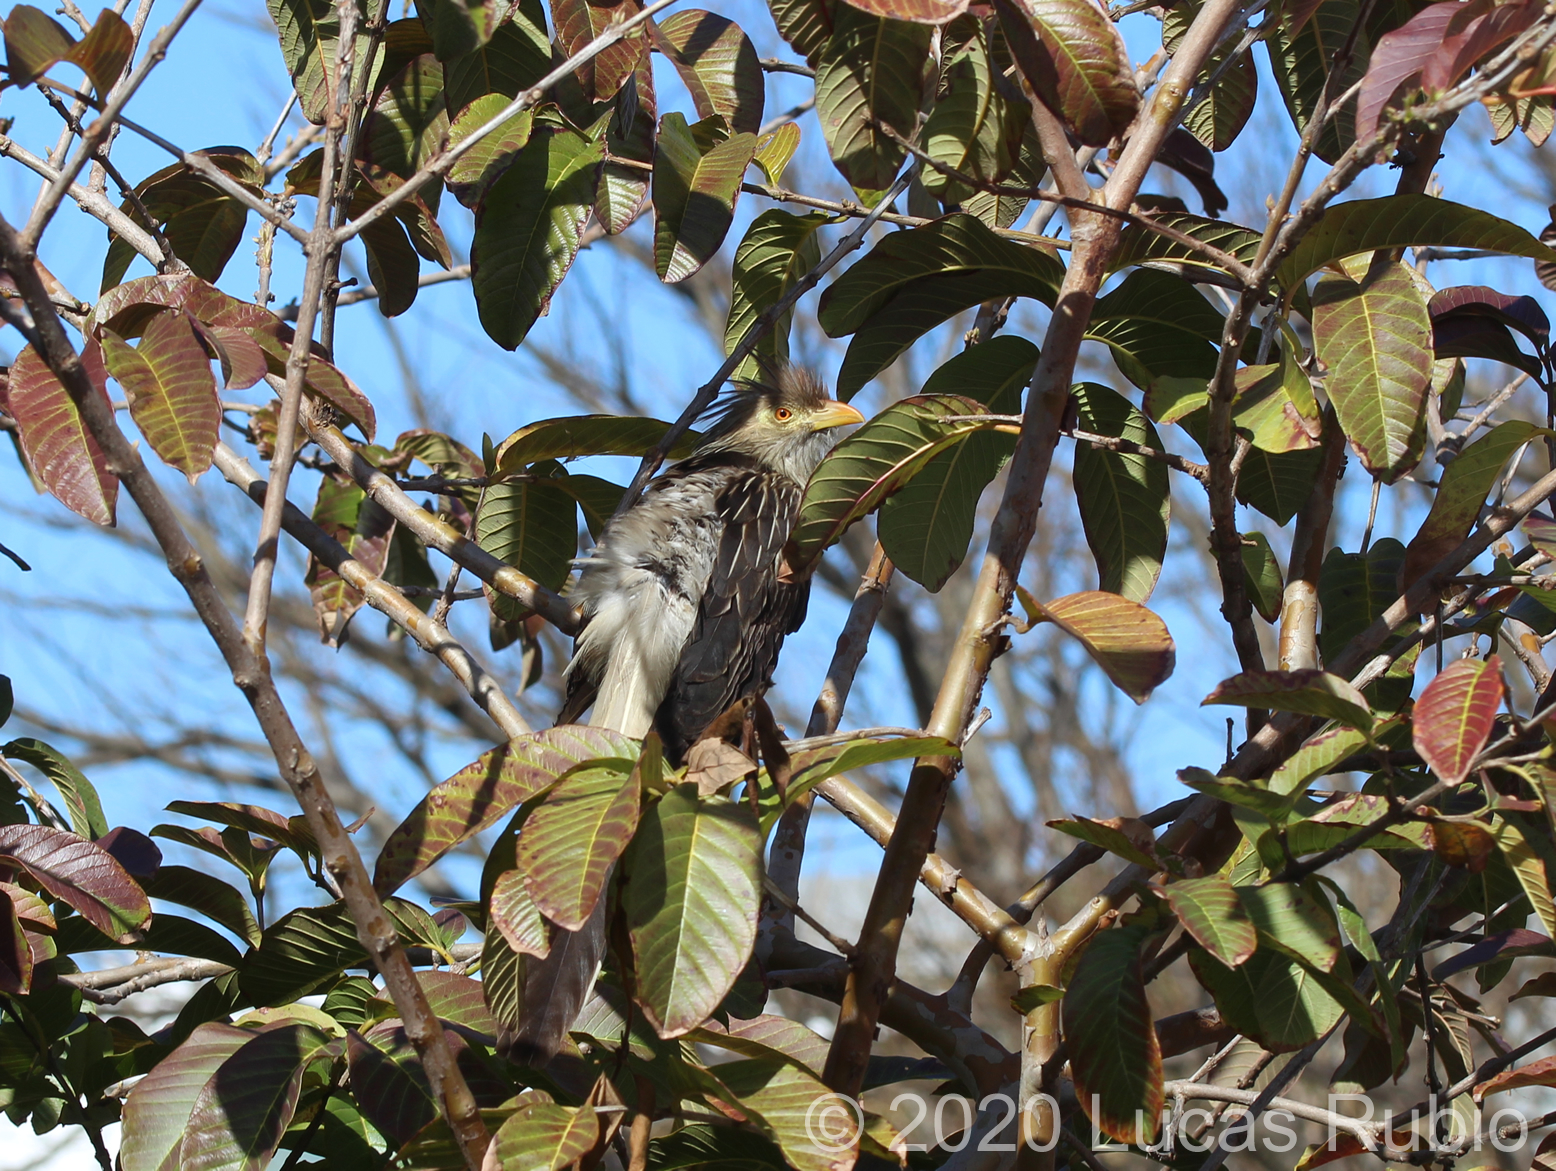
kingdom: Animalia
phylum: Chordata
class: Aves
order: Cuculiformes
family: Cuculidae
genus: Guira
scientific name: Guira guira
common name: Guira cuckoo
